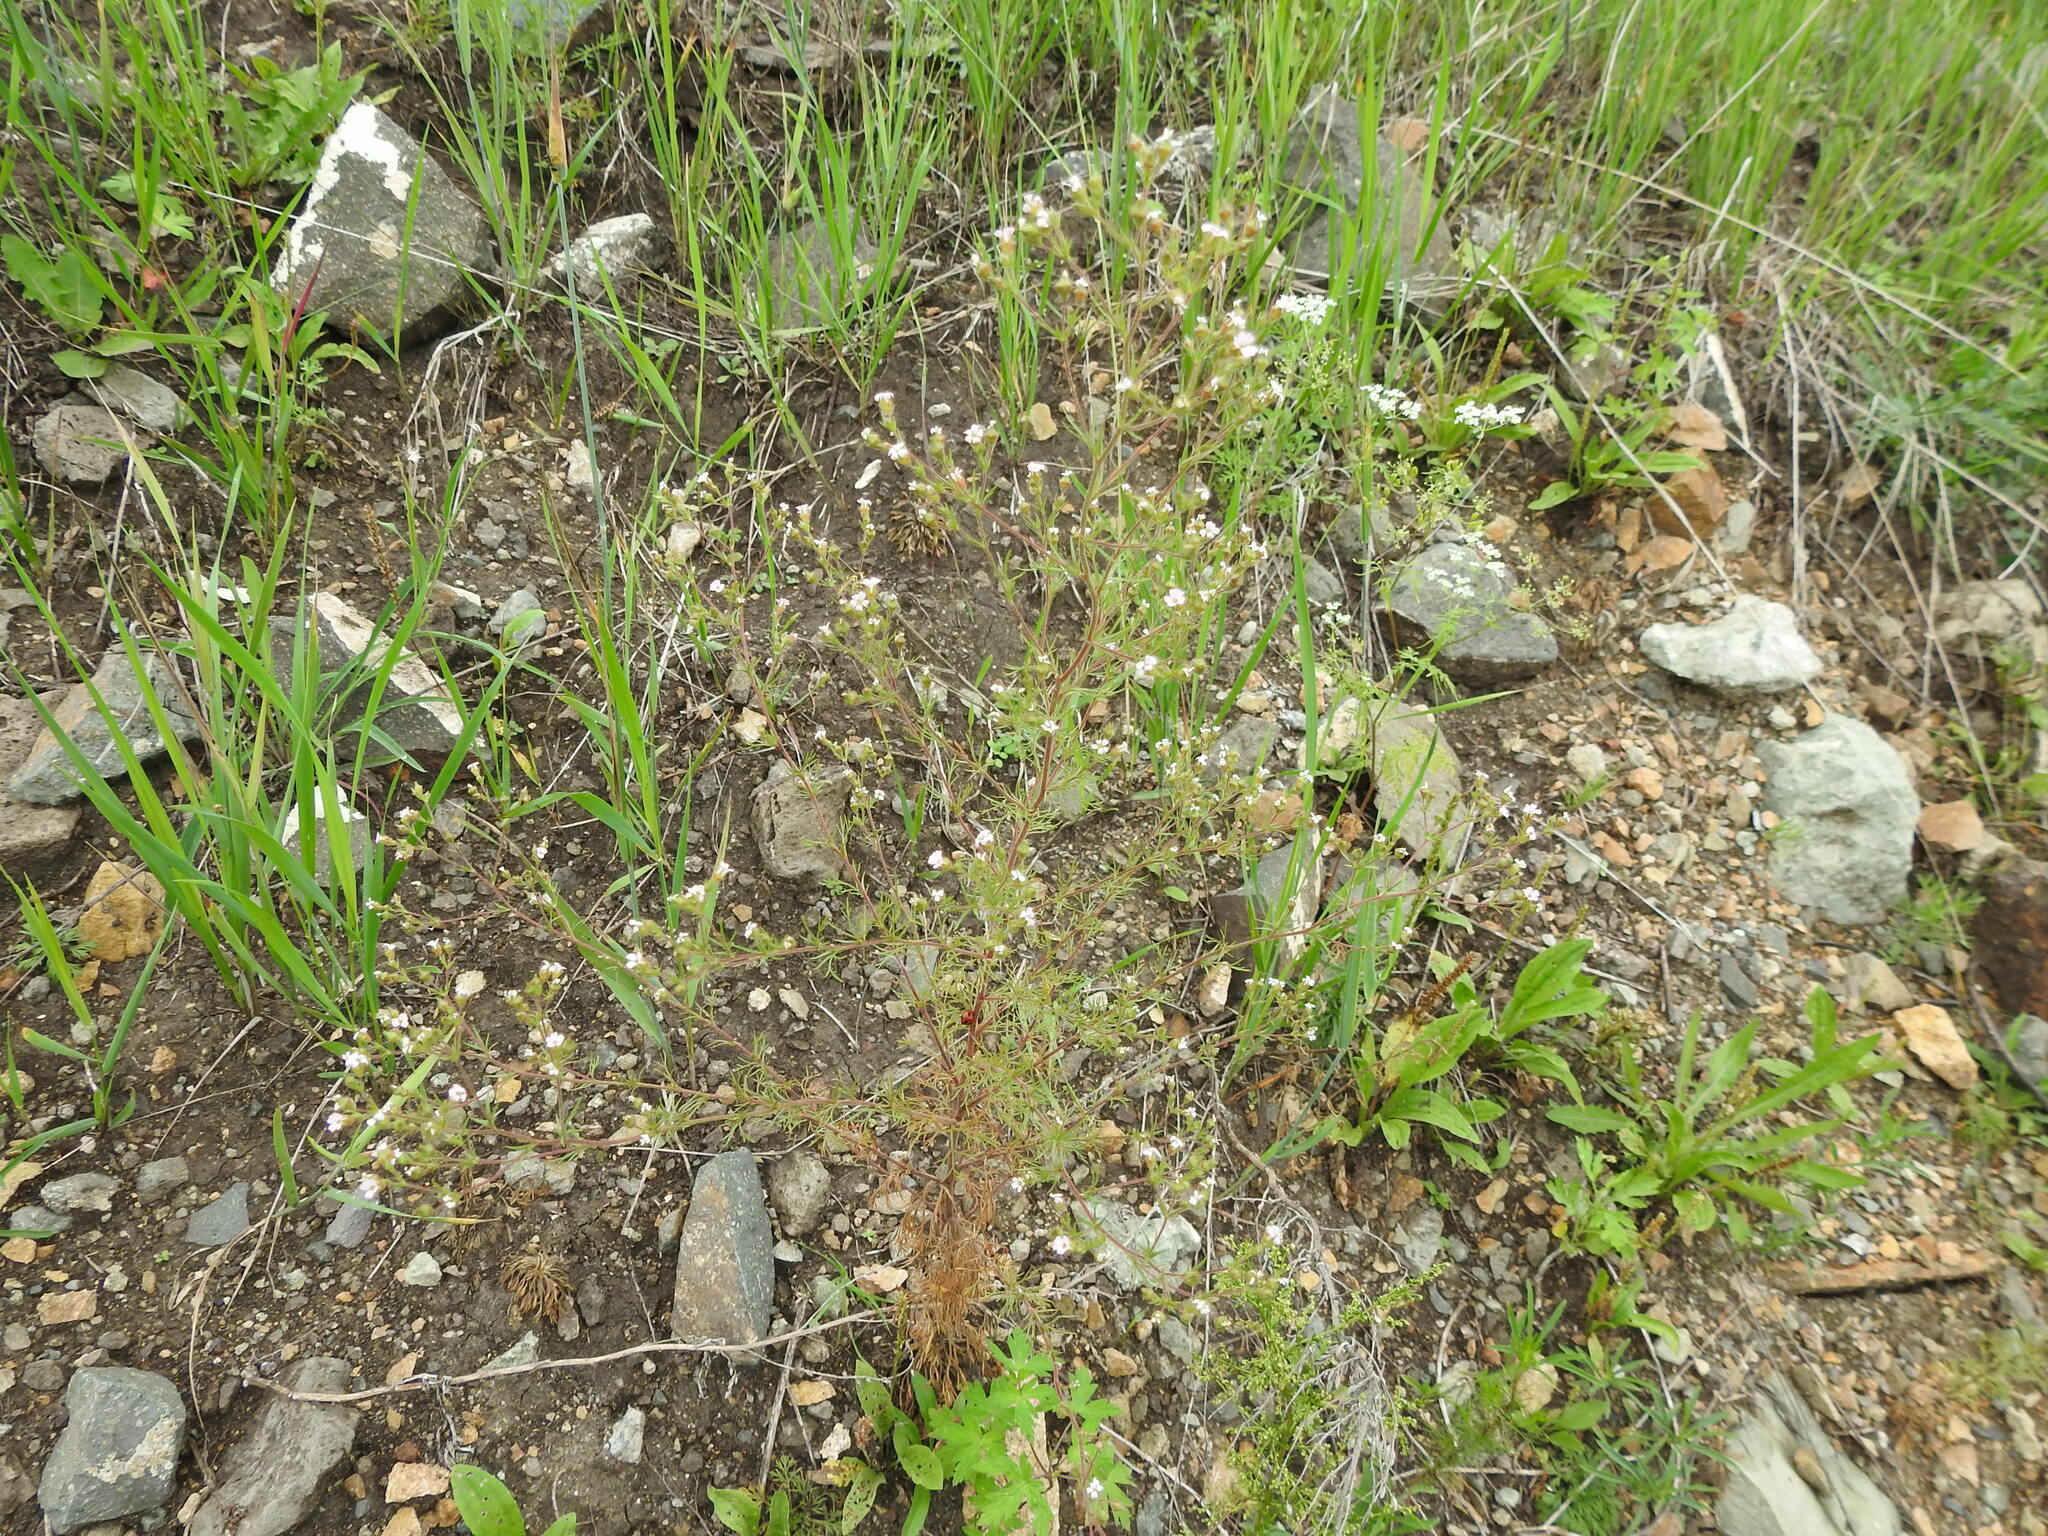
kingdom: Plantae
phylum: Tracheophyta
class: Magnoliopsida
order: Rosales
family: Rosaceae
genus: Chamaerhodos
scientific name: Chamaerhodos erecta
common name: American chamaerhodos
